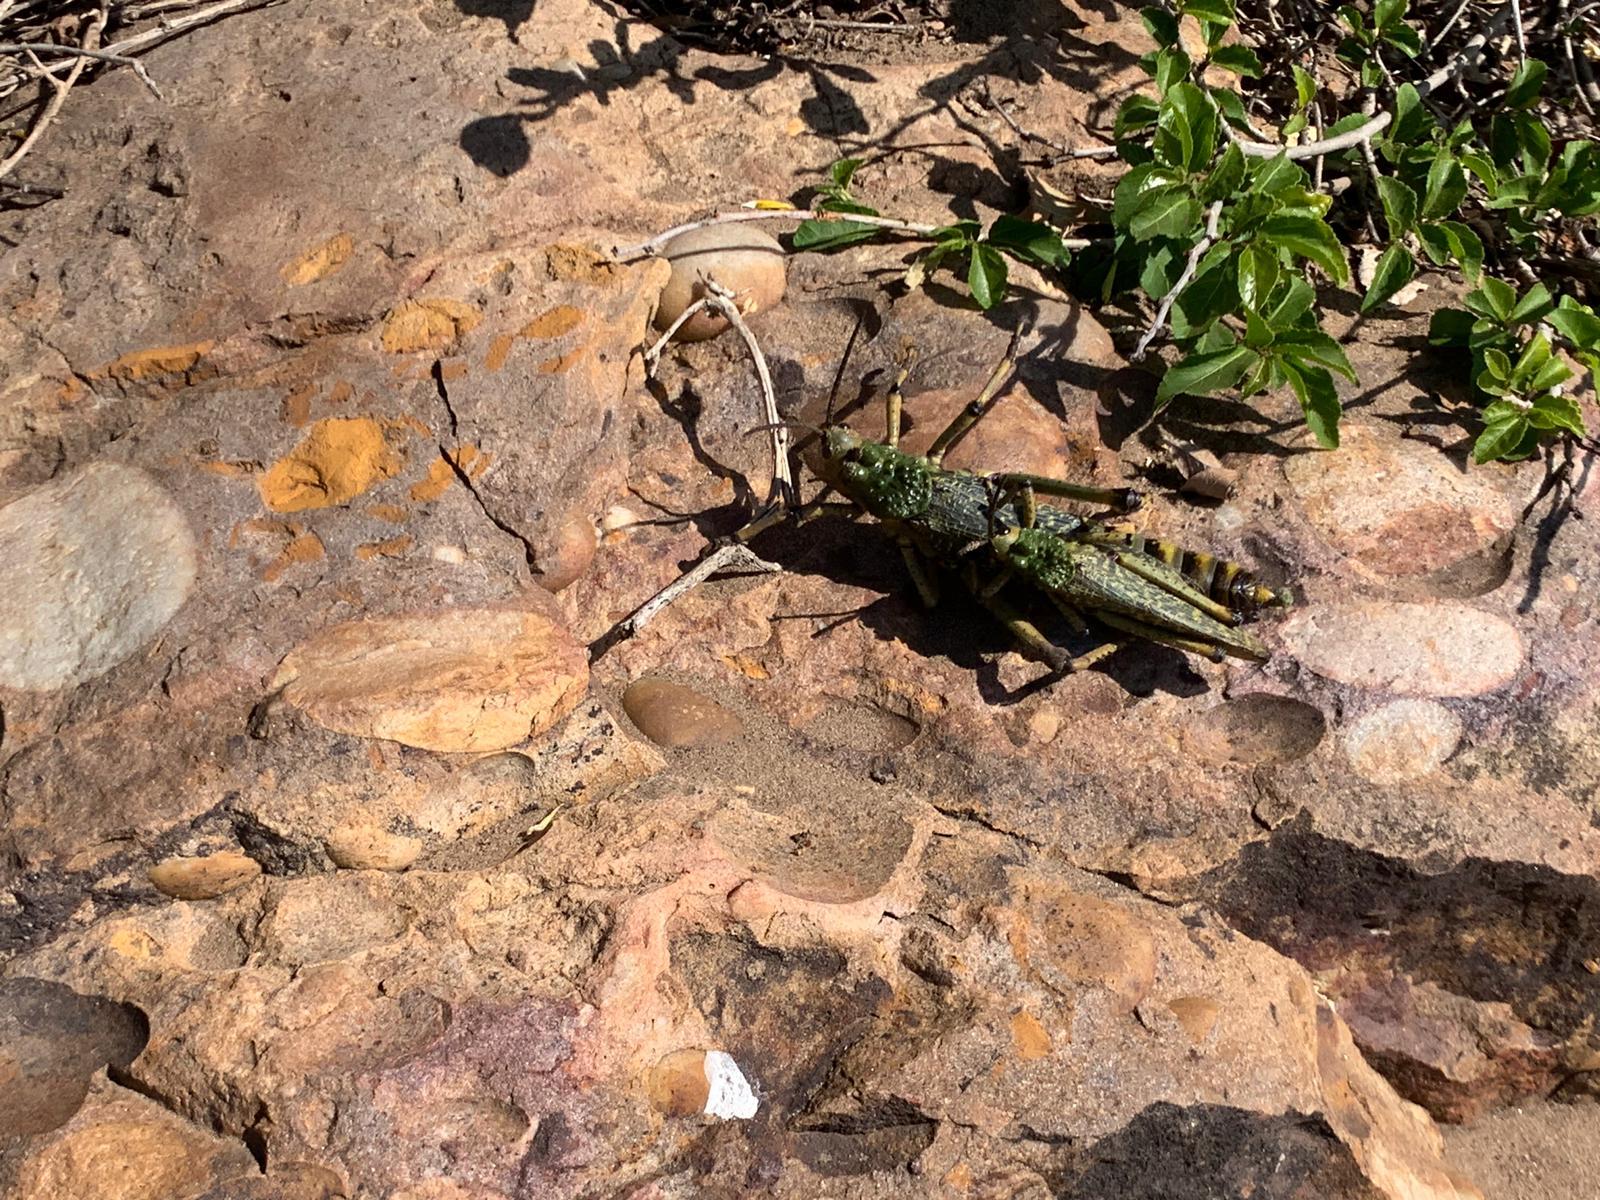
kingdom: Animalia
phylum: Arthropoda
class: Insecta
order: Orthoptera
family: Pyrgomorphidae
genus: Phymateus
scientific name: Phymateus leprosus
